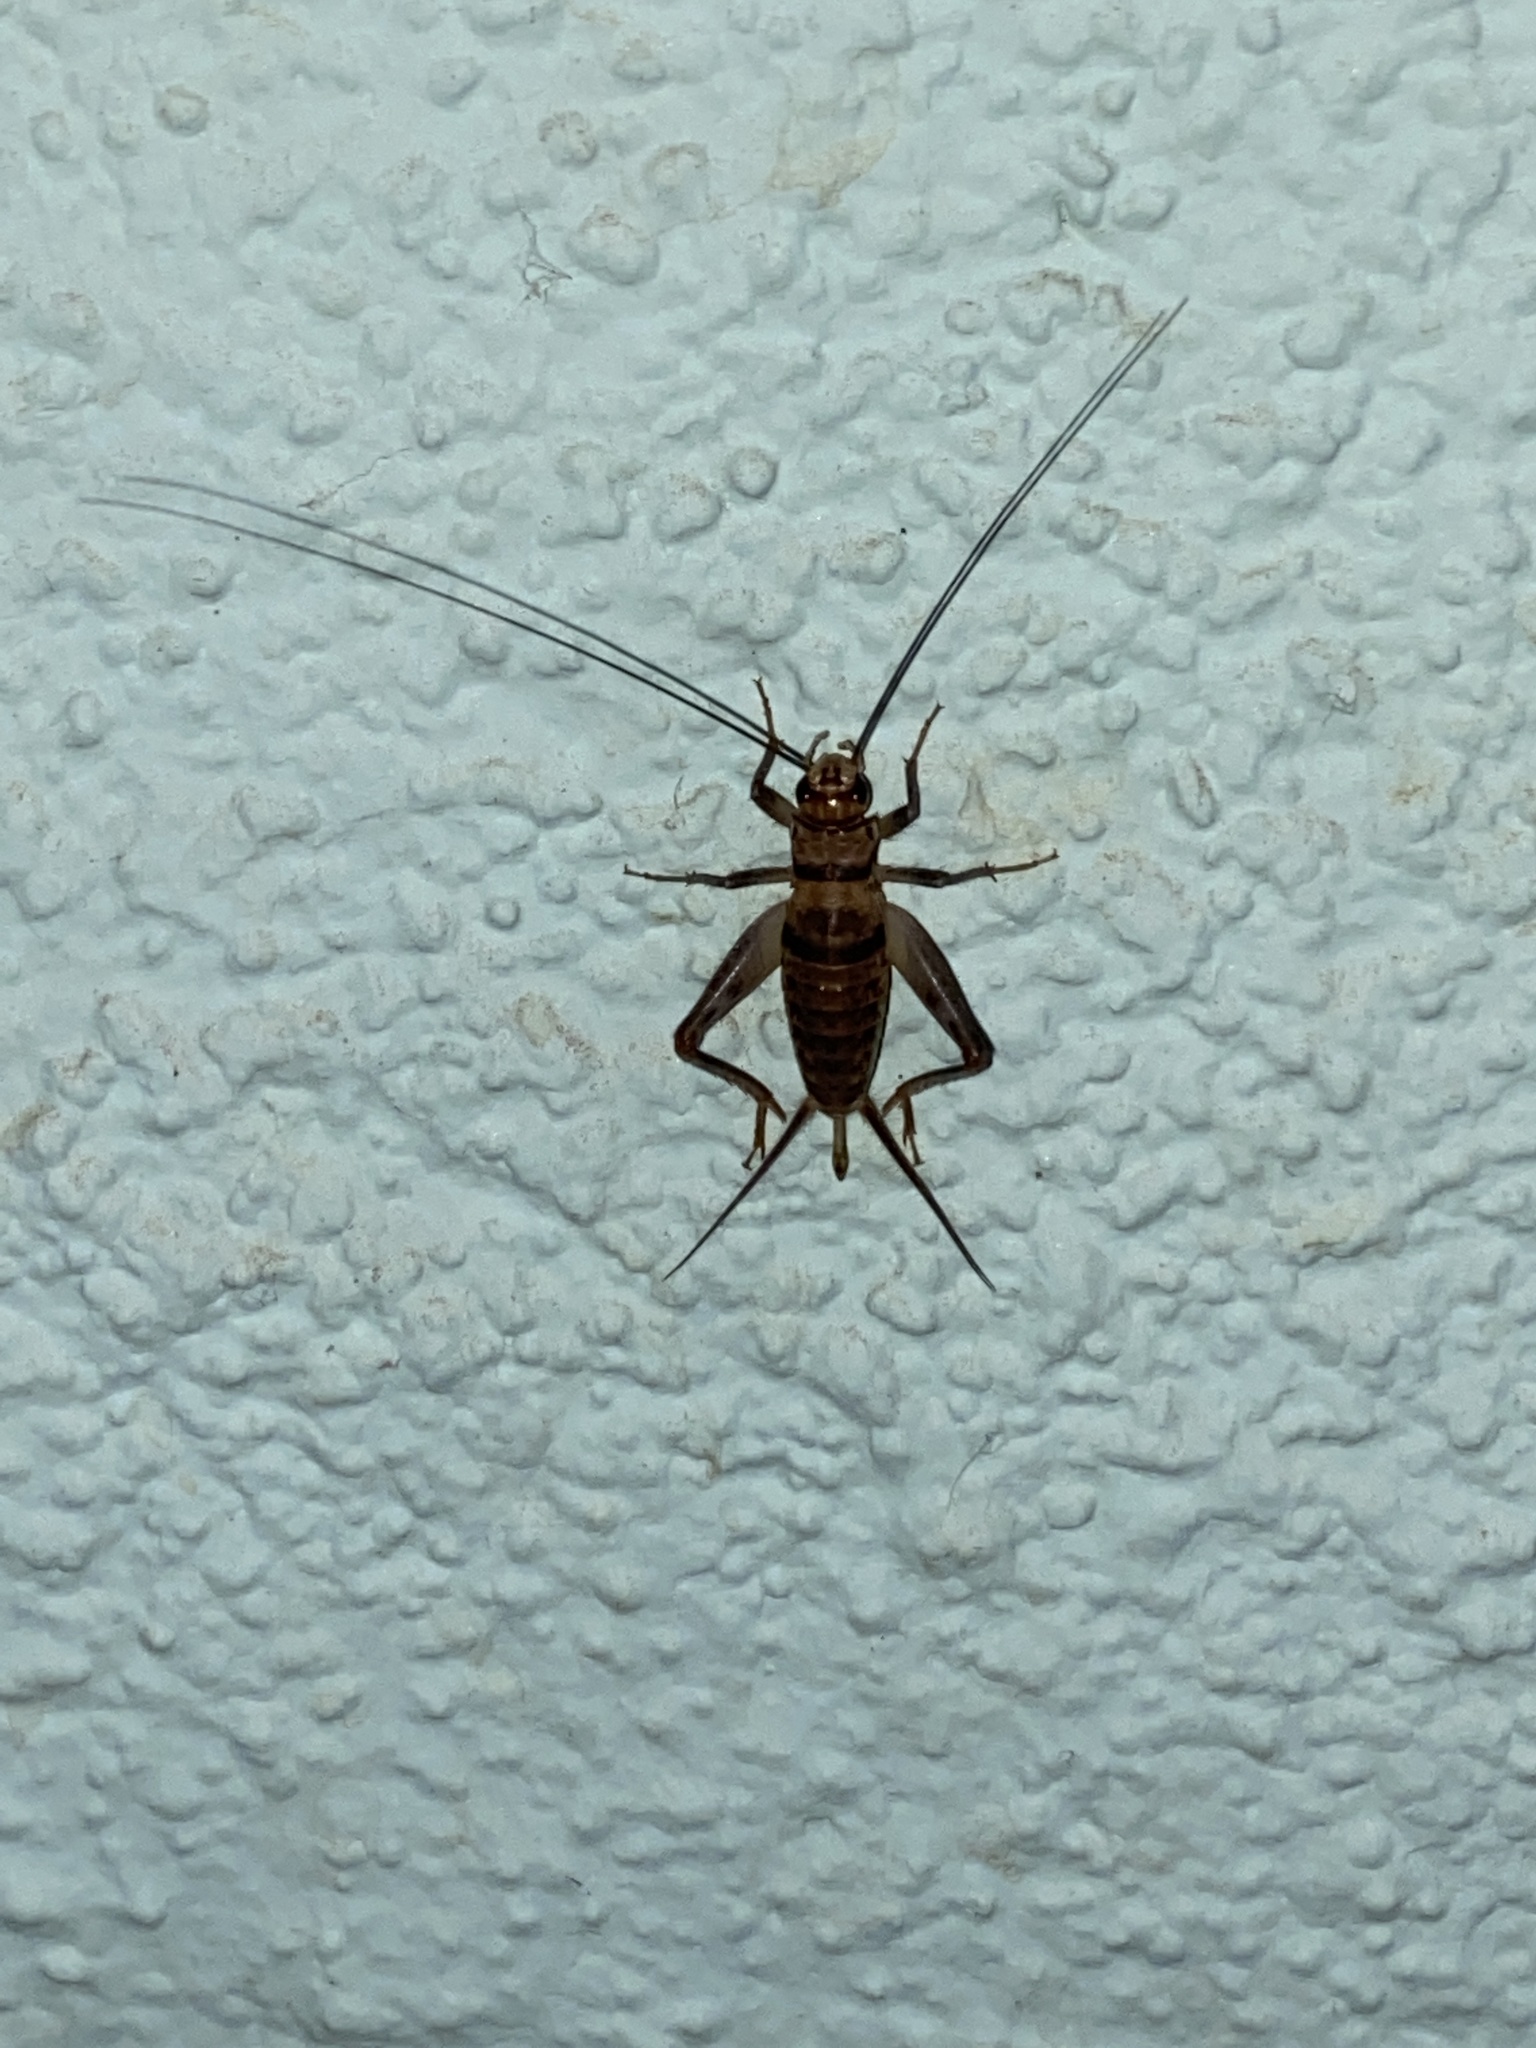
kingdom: Animalia
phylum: Arthropoda
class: Insecta
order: Orthoptera
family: Gryllidae
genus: Gryllodes
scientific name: Gryllodes sigillatus
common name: Tropical house cricket
